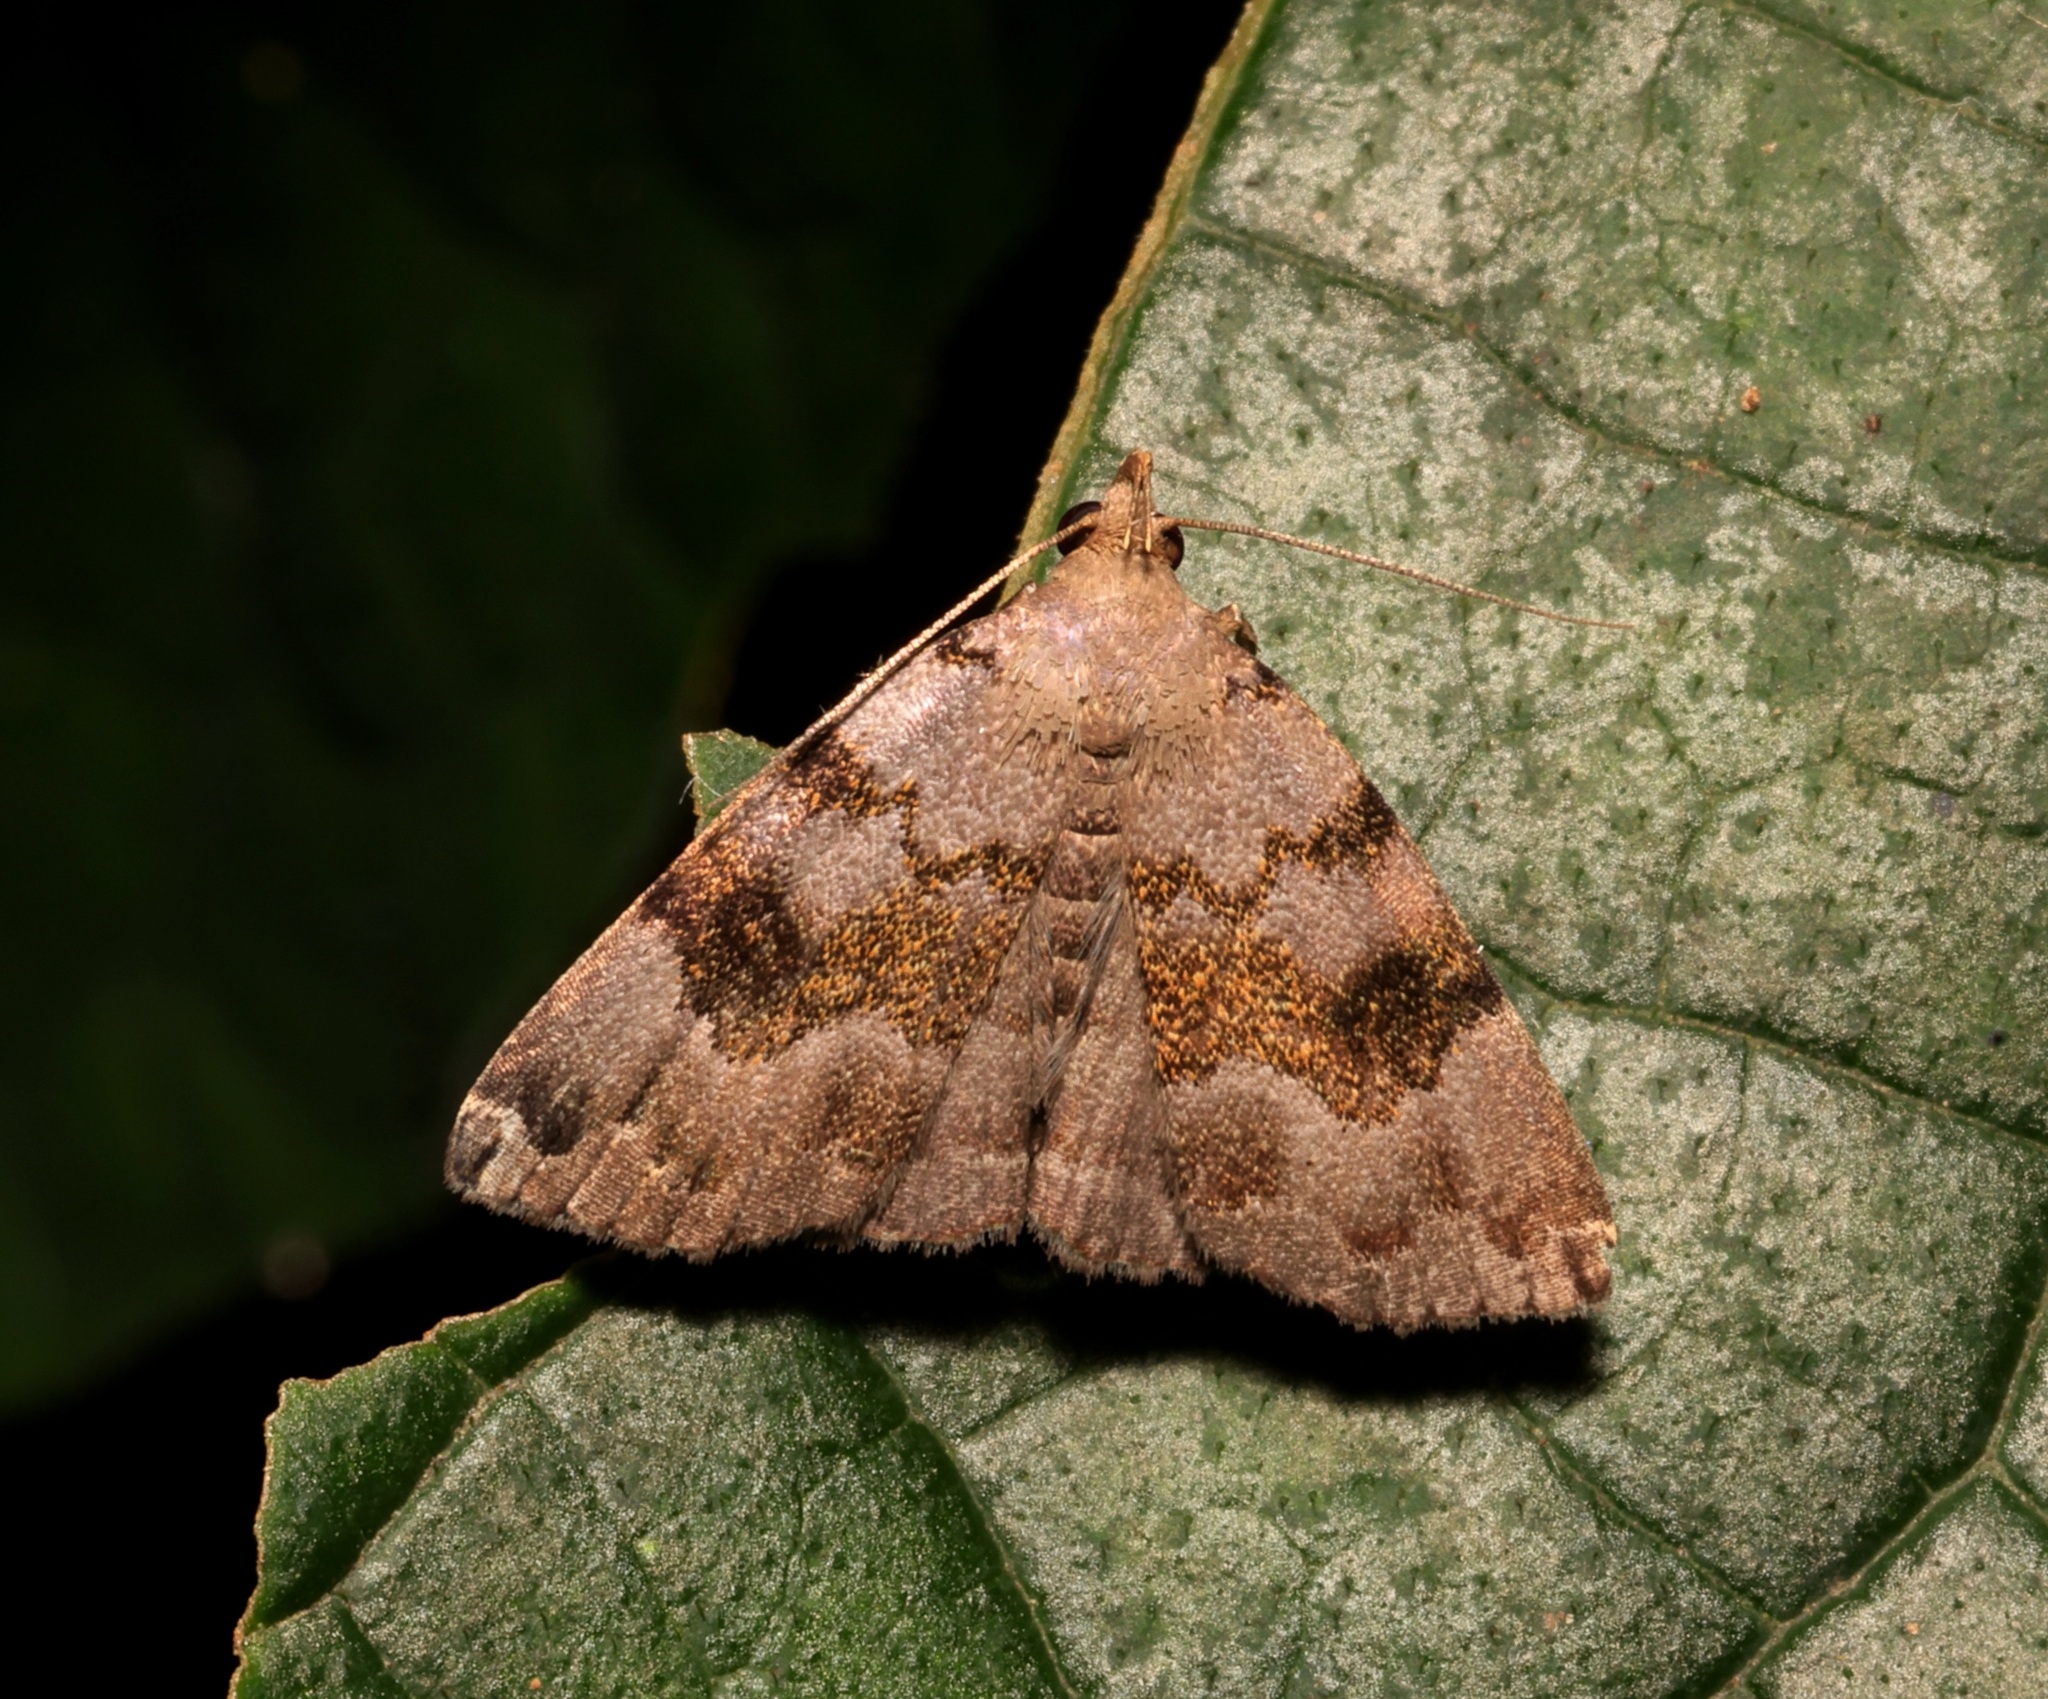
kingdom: Animalia
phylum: Arthropoda
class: Insecta
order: Lepidoptera
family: Erebidae
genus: Sinarella
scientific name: Sinarella nigrisigna
